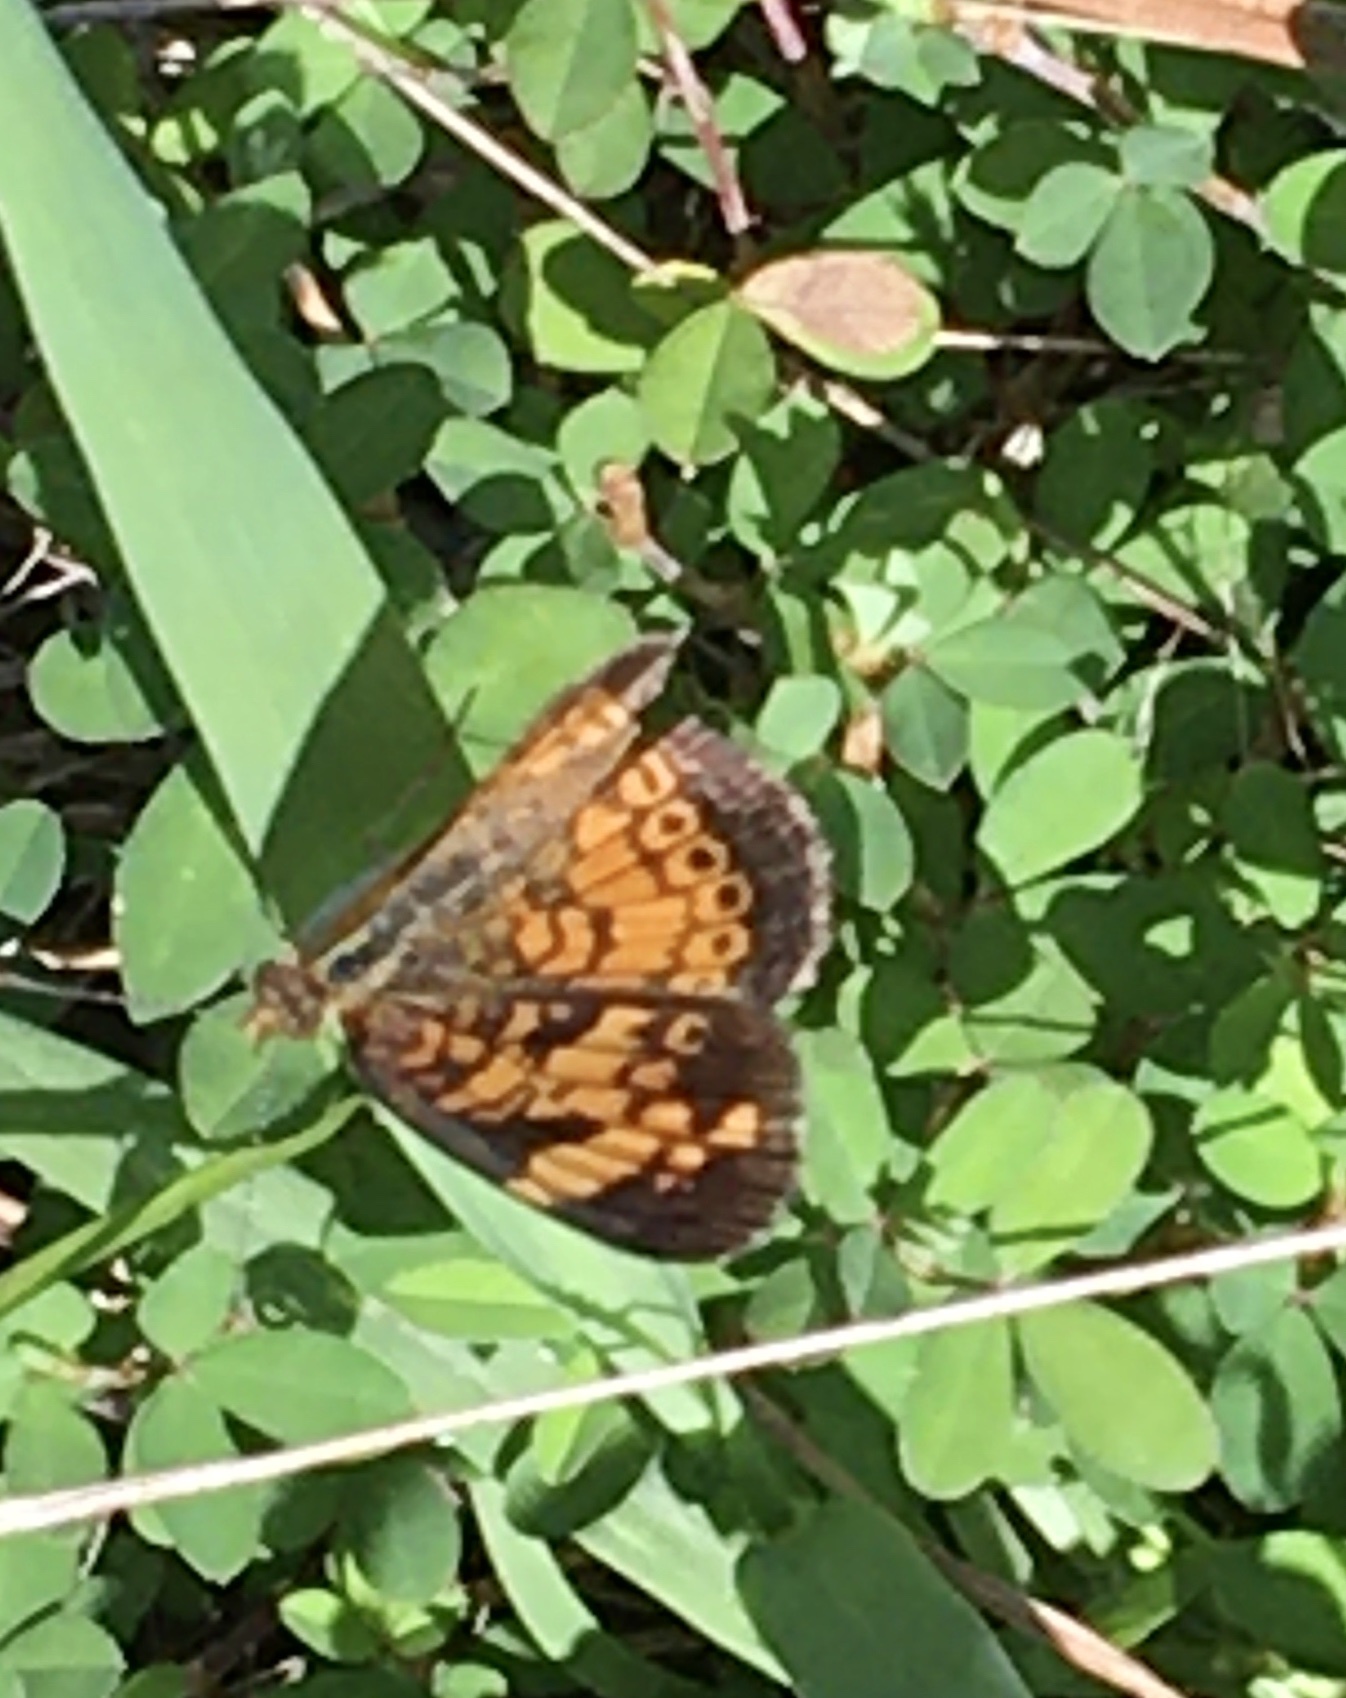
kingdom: Animalia
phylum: Arthropoda
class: Insecta
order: Lepidoptera
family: Nymphalidae
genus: Phyciodes
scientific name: Phyciodes tharos
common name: Pearl crescent
